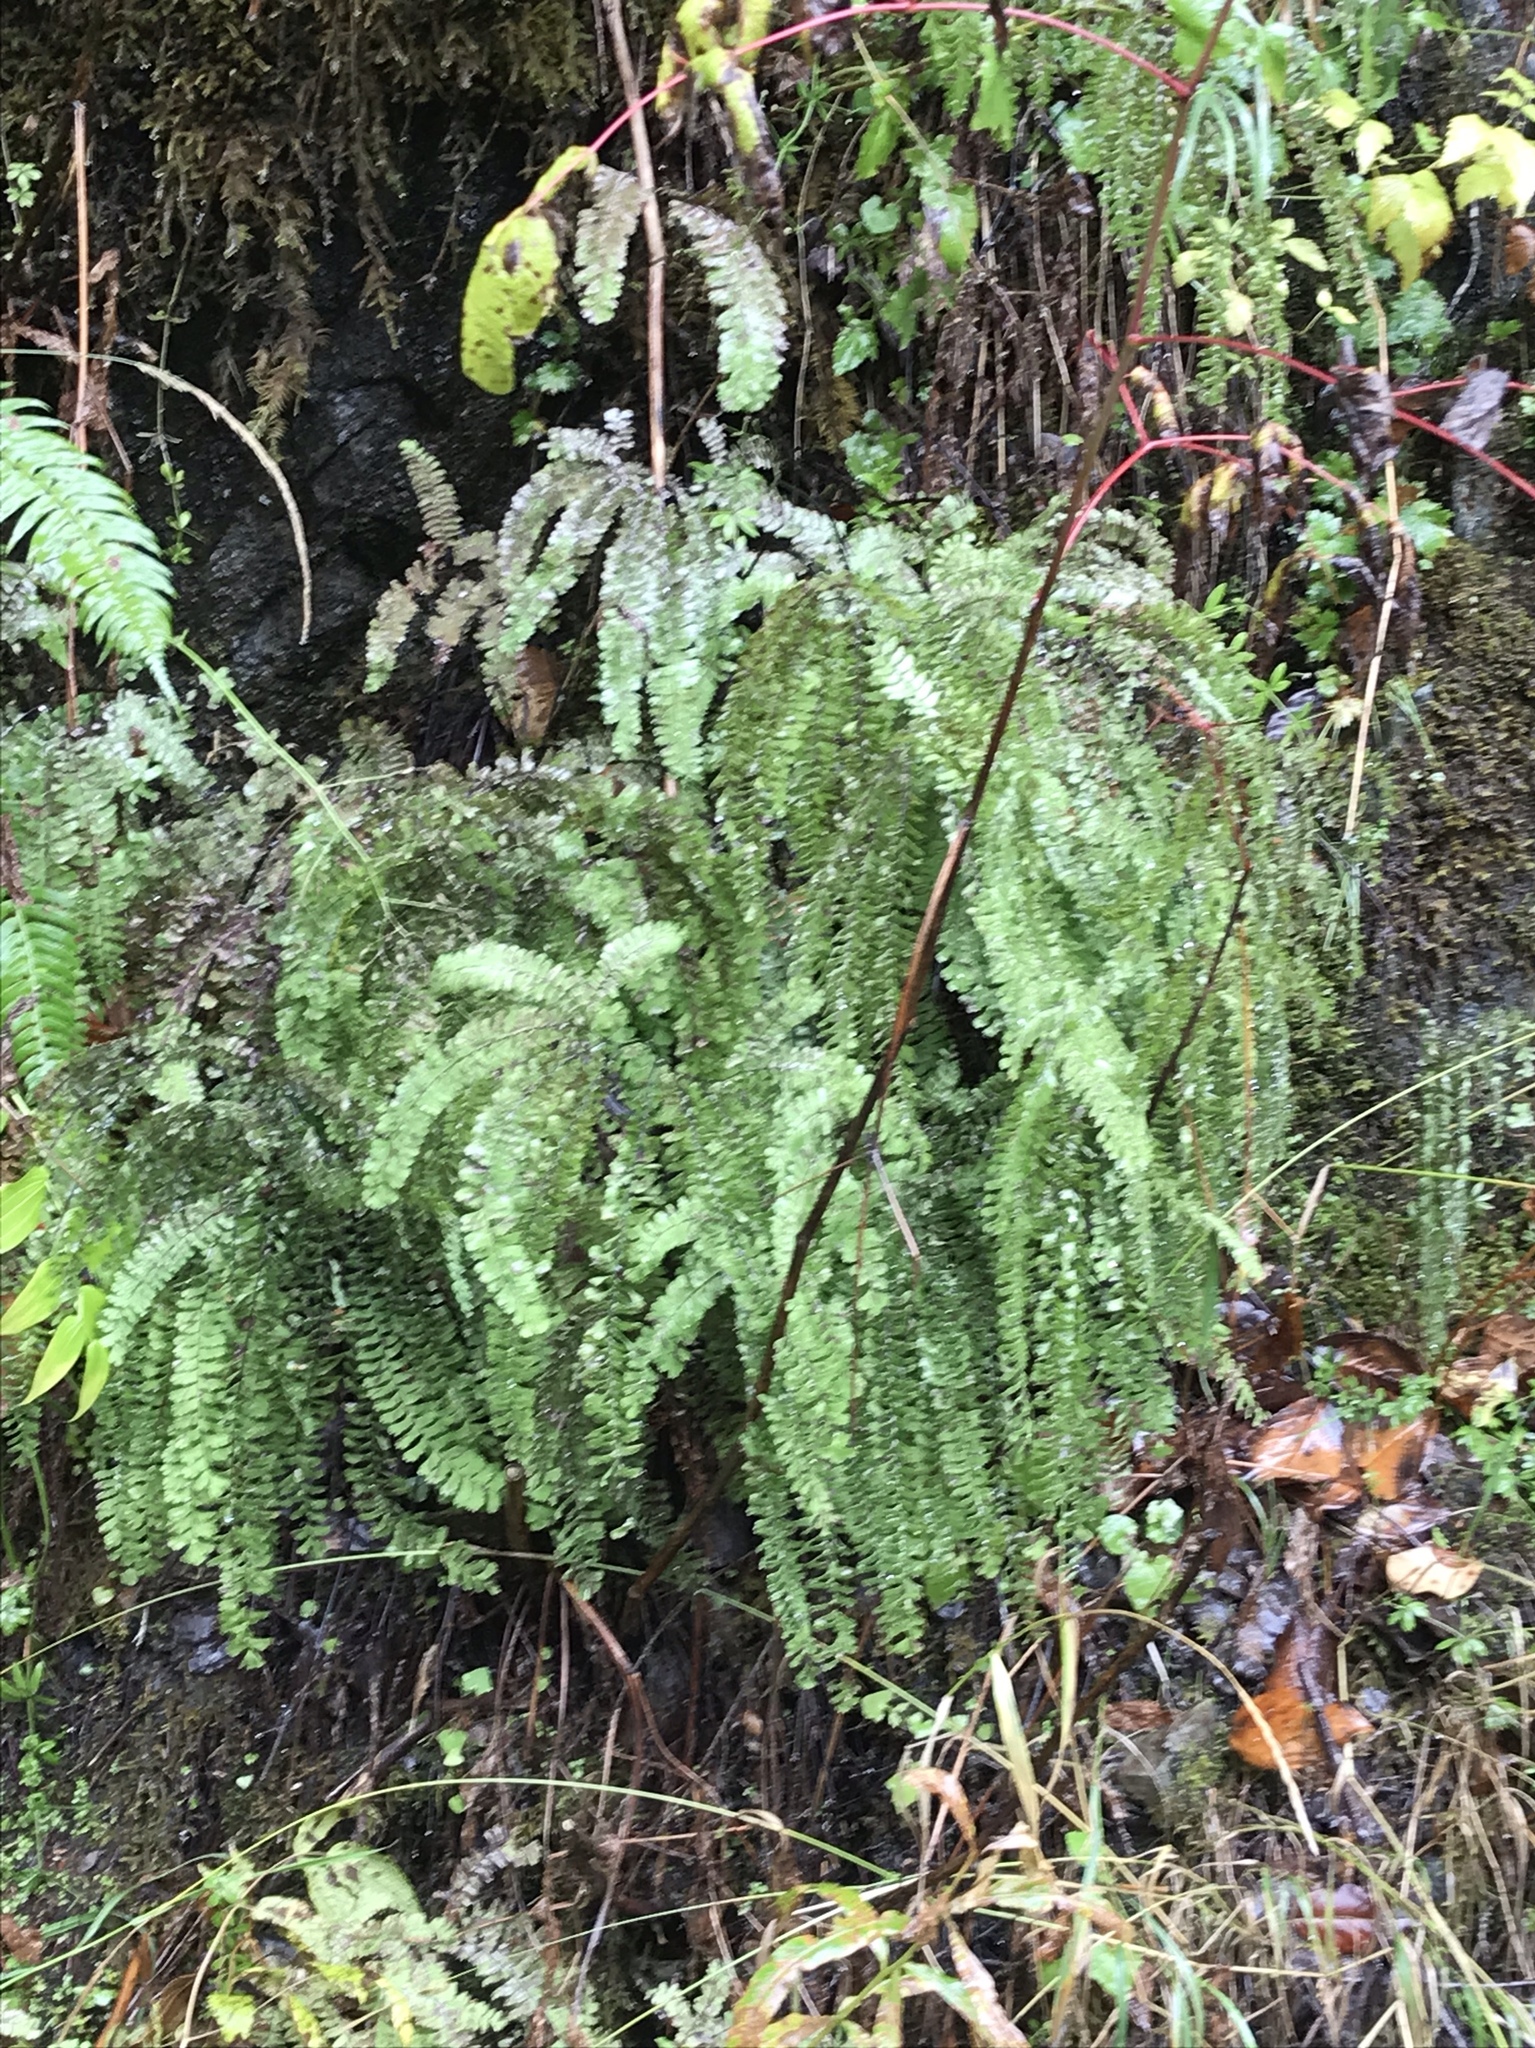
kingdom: Plantae
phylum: Tracheophyta
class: Polypodiopsida
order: Polypodiales
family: Pteridaceae
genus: Adiantum
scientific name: Adiantum aleuticum
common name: Aleutian maidenhair fern
